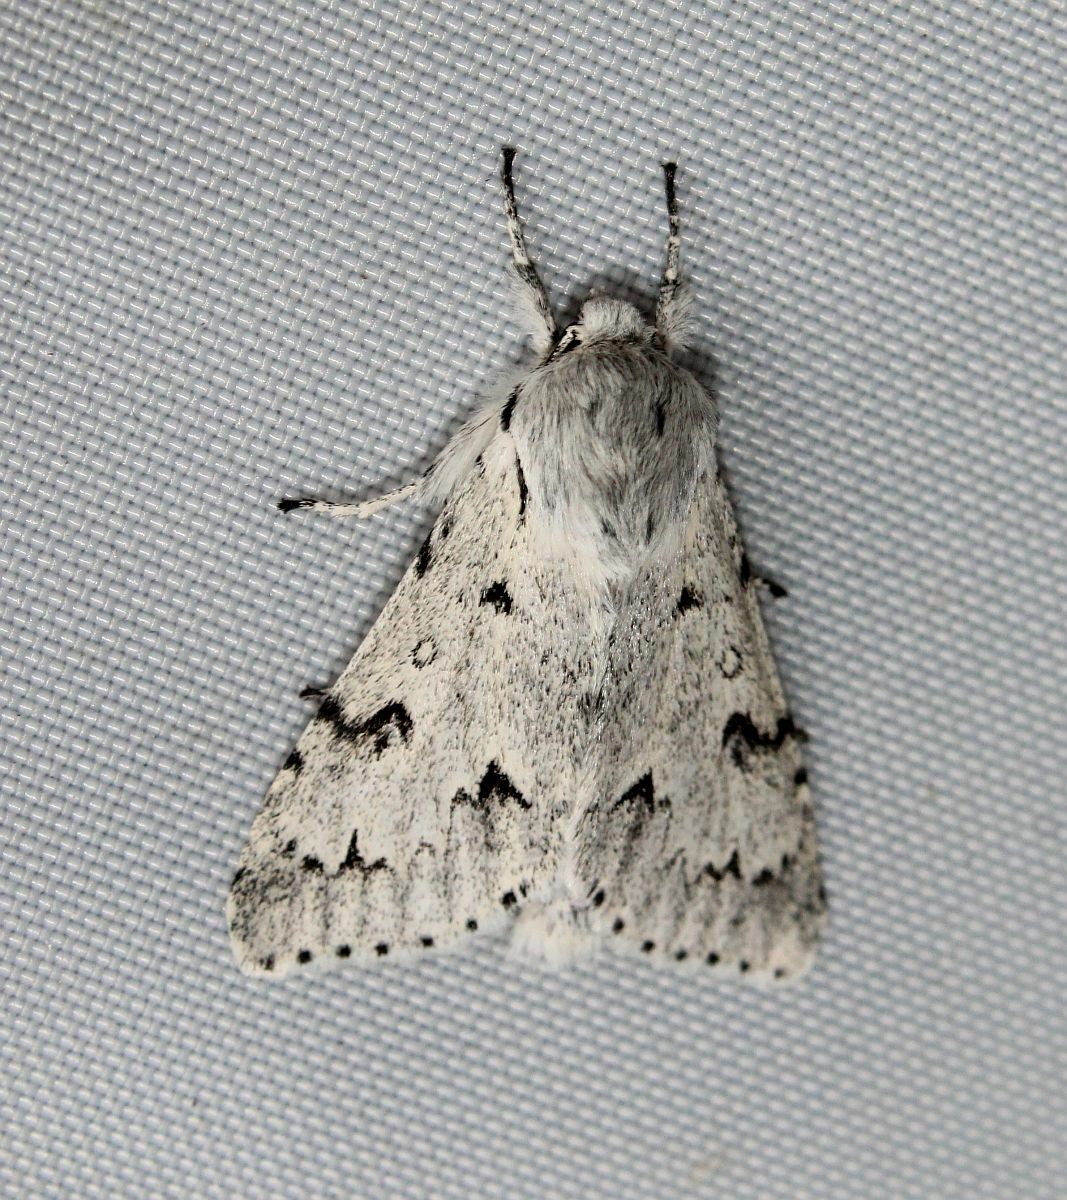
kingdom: Animalia
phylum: Arthropoda
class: Insecta
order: Lepidoptera
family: Noctuidae
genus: Acronicta
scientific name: Acronicta leporina
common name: Miller
